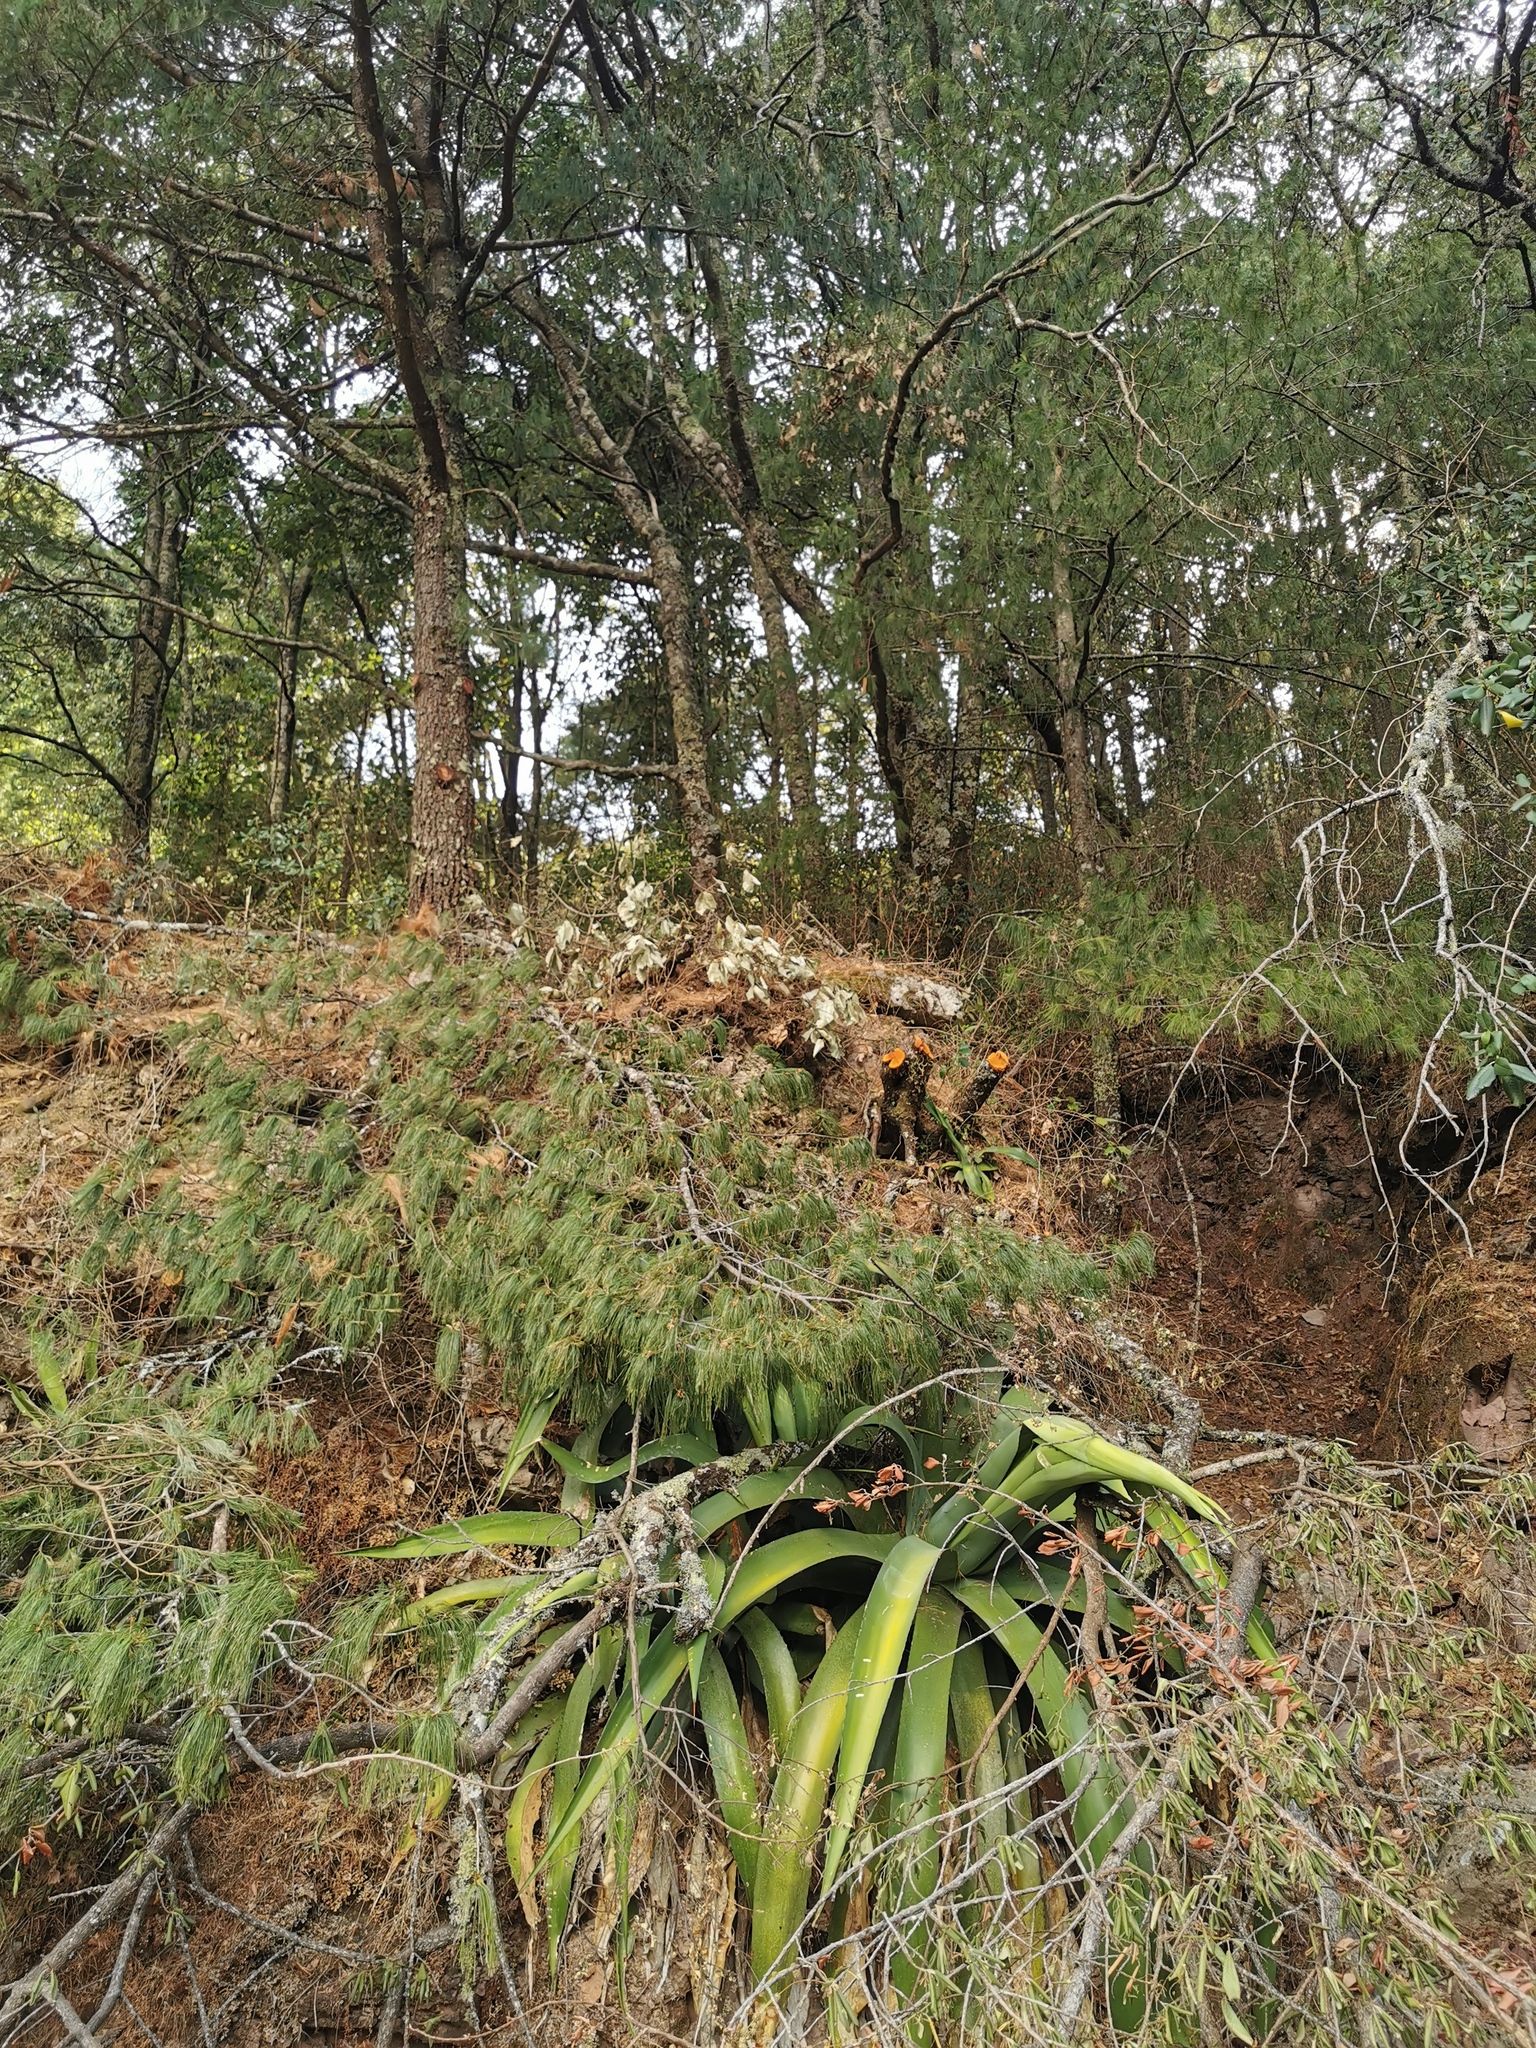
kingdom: Plantae
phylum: Tracheophyta
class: Liliopsida
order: Asparagales
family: Asparagaceae
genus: Agave
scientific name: Agave inaequidens
